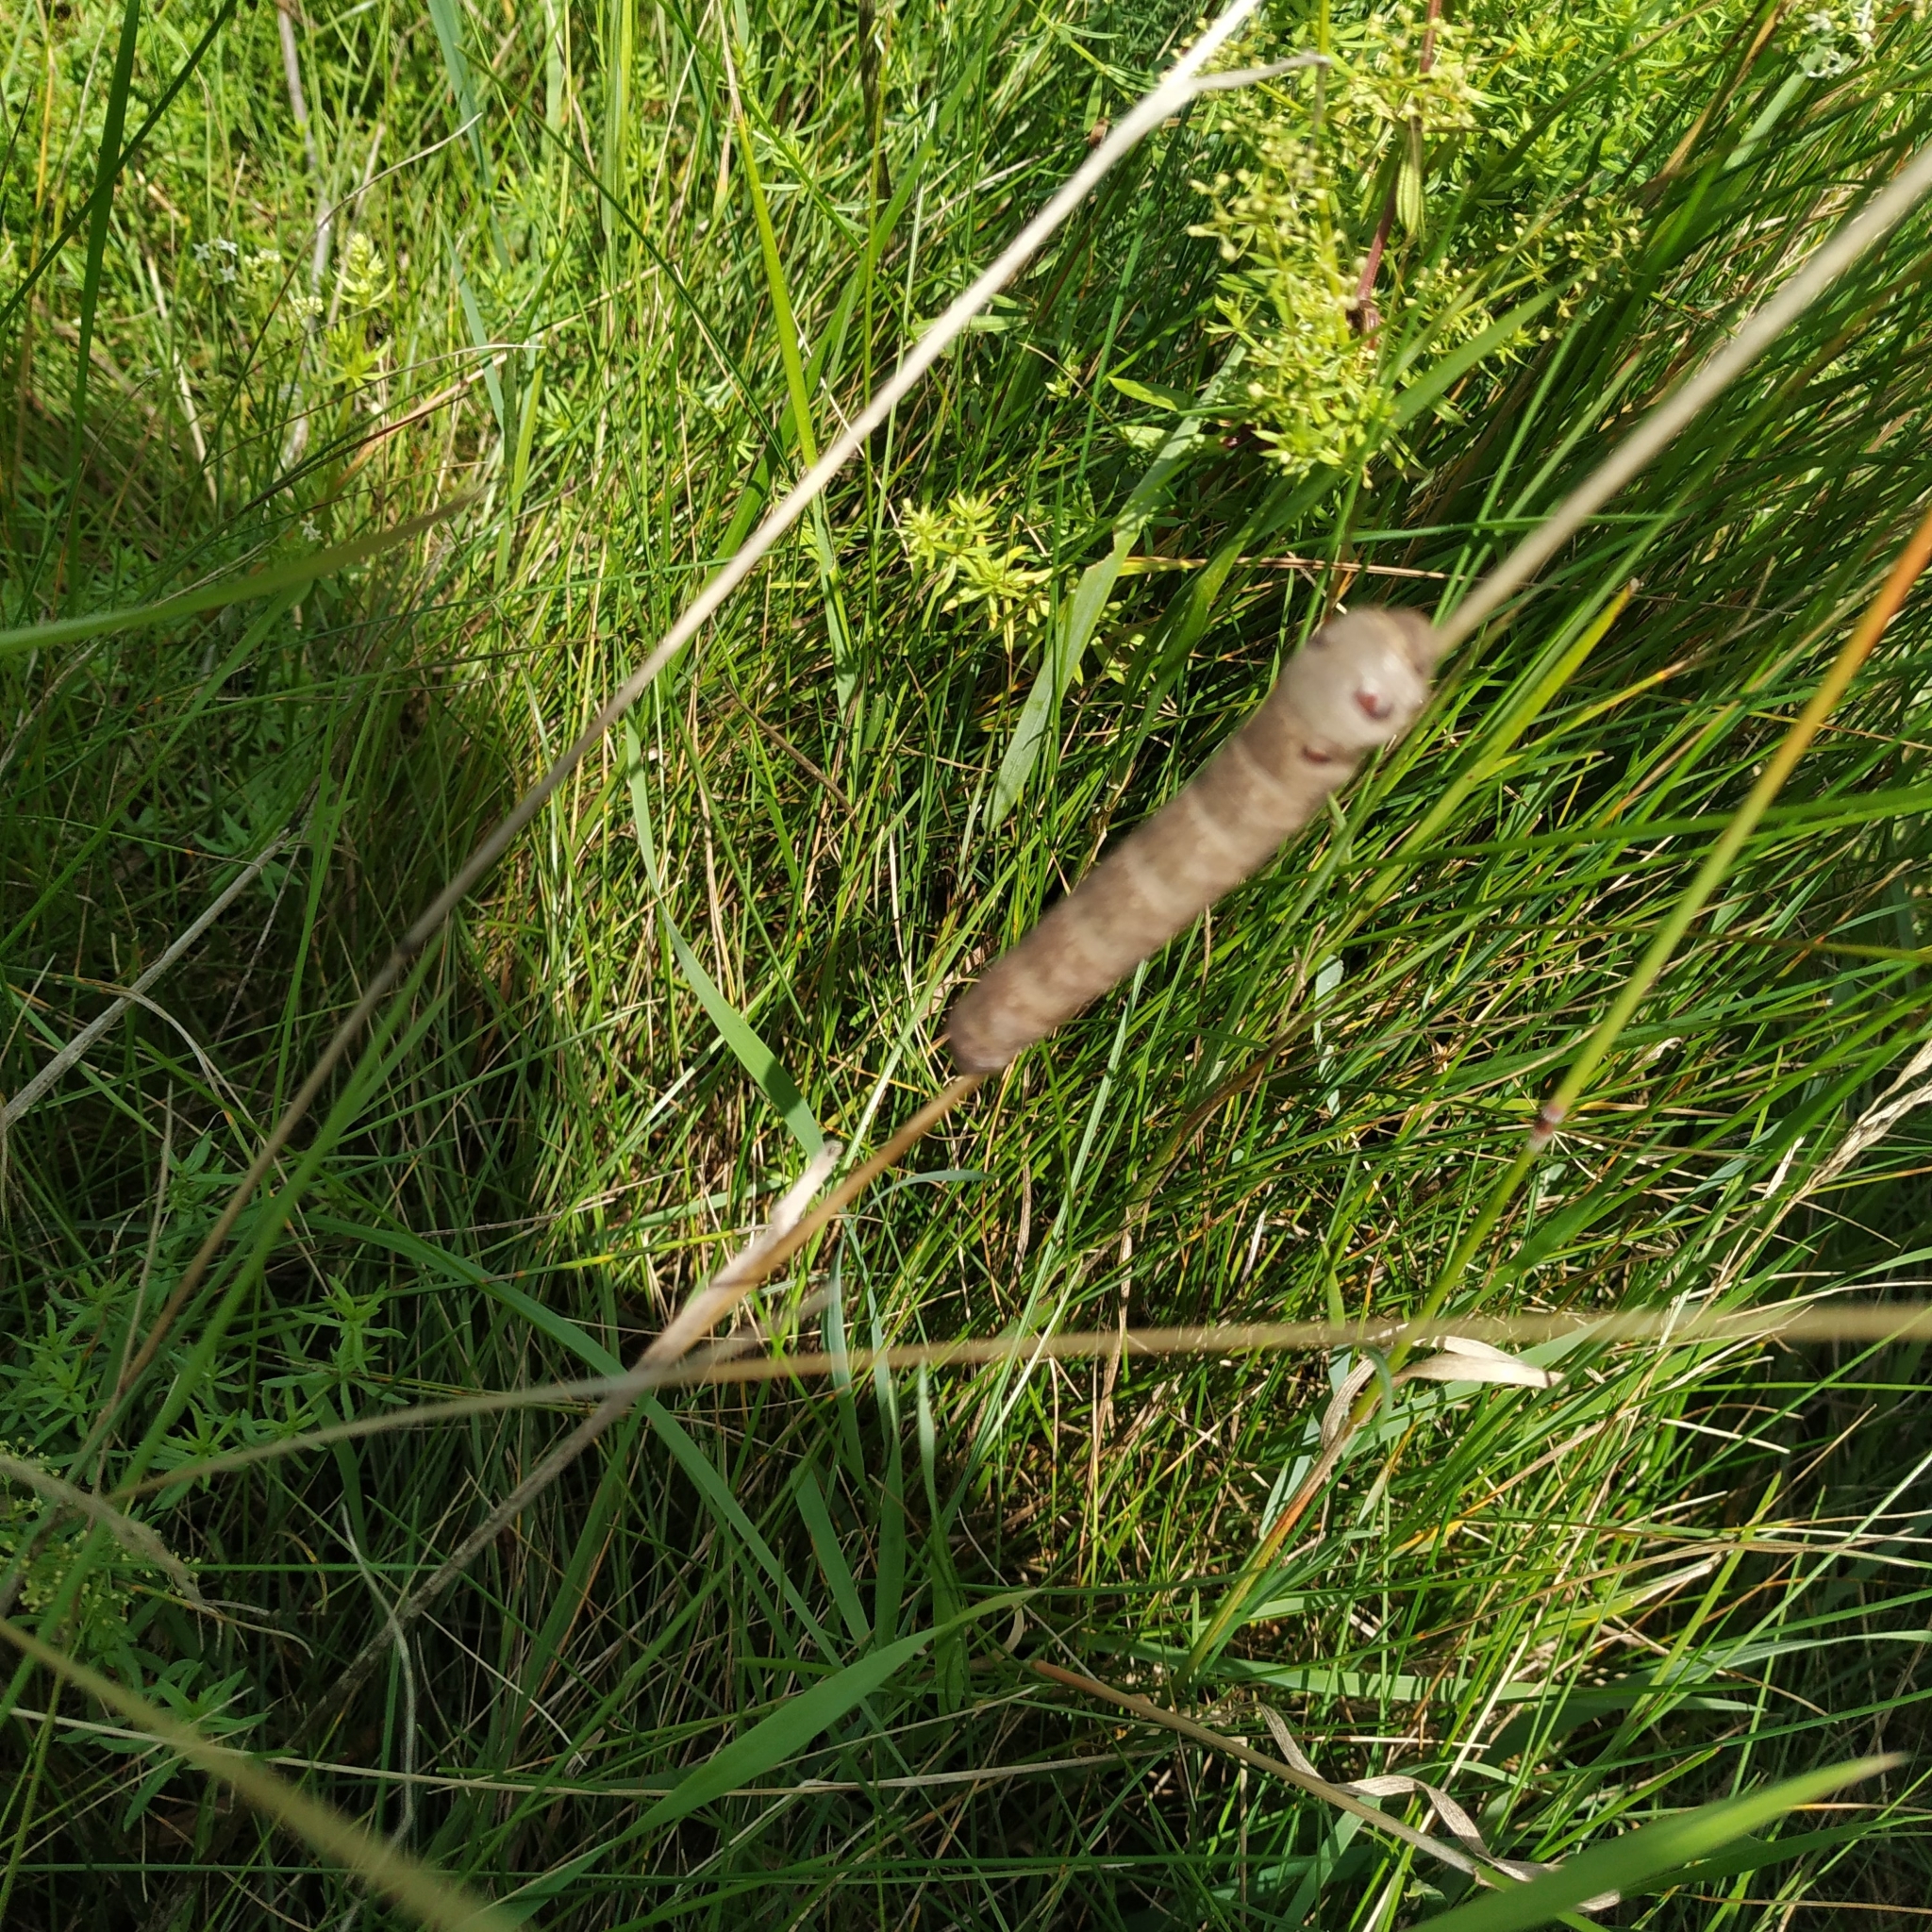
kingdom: Animalia
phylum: Arthropoda
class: Insecta
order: Lepidoptera
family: Sphingidae
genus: Deilephila
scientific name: Deilephila porcellus
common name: Small elephant hawk-moth
